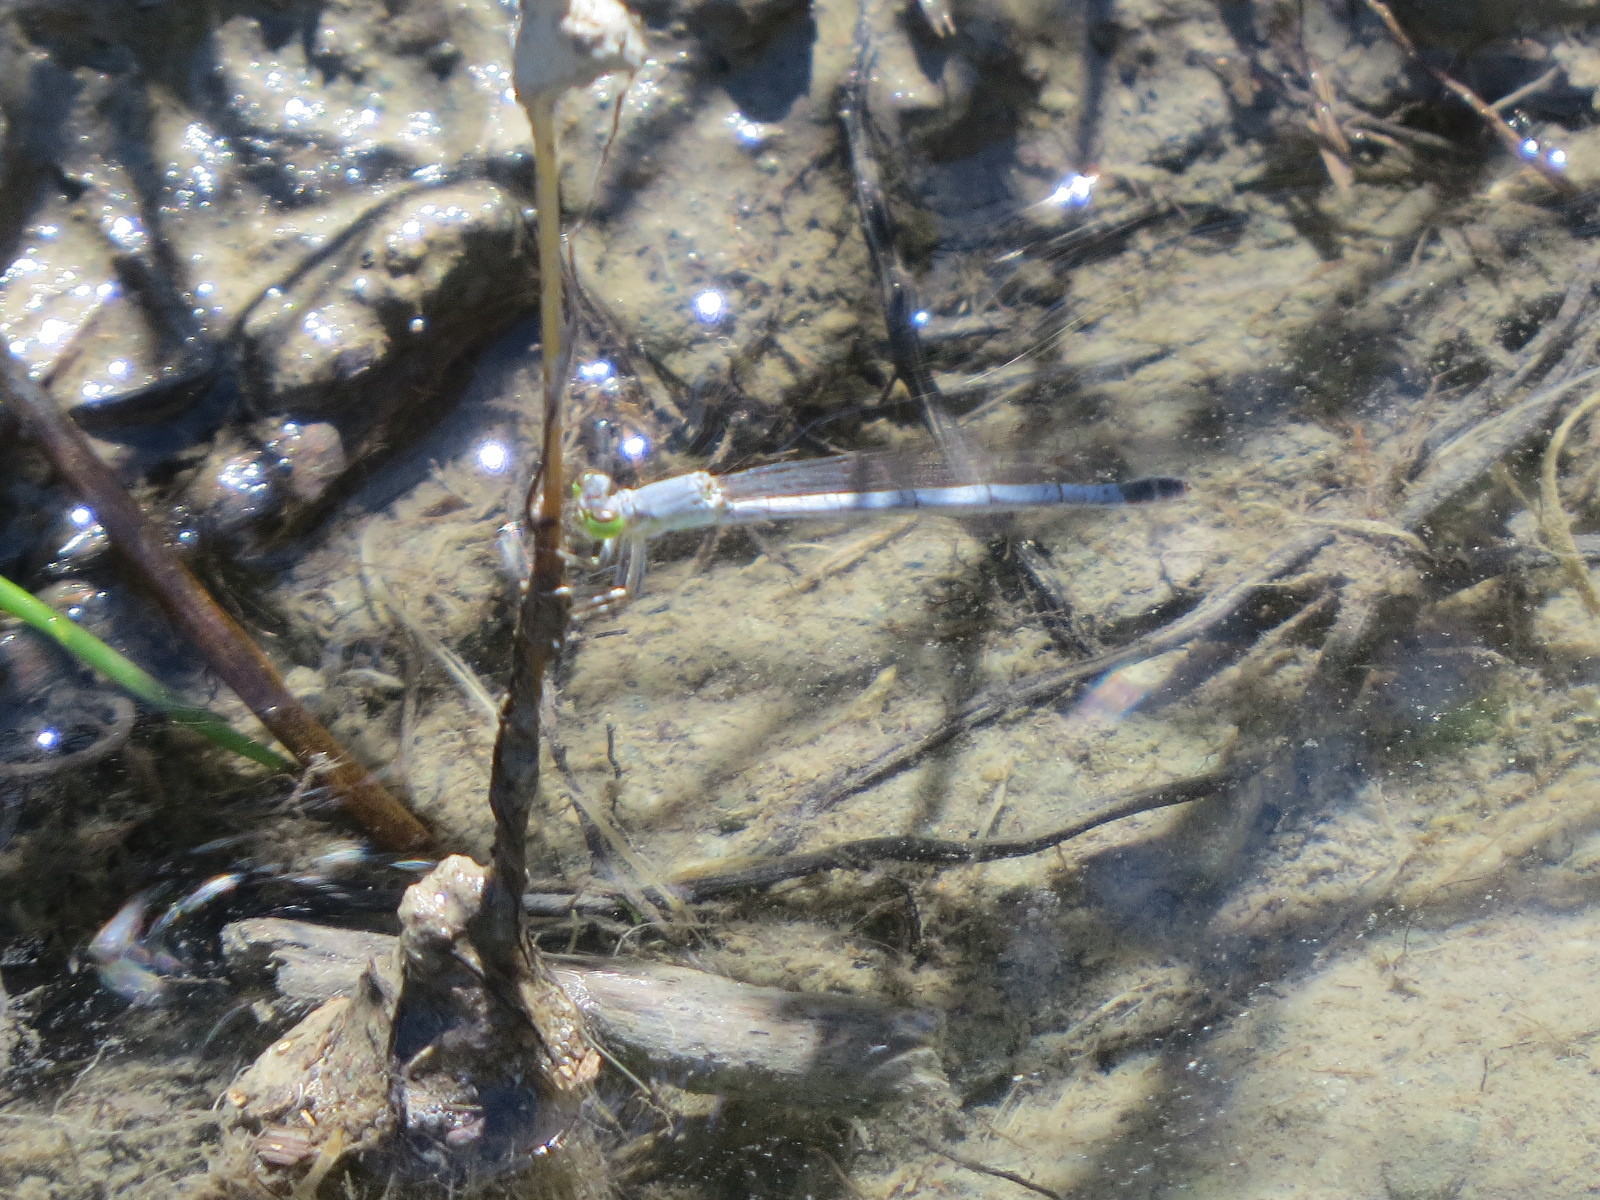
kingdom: Animalia
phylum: Arthropoda
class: Insecta
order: Odonata
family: Coenagrionidae
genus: Ischnura
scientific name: Ischnura perparva
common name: Western forktail
